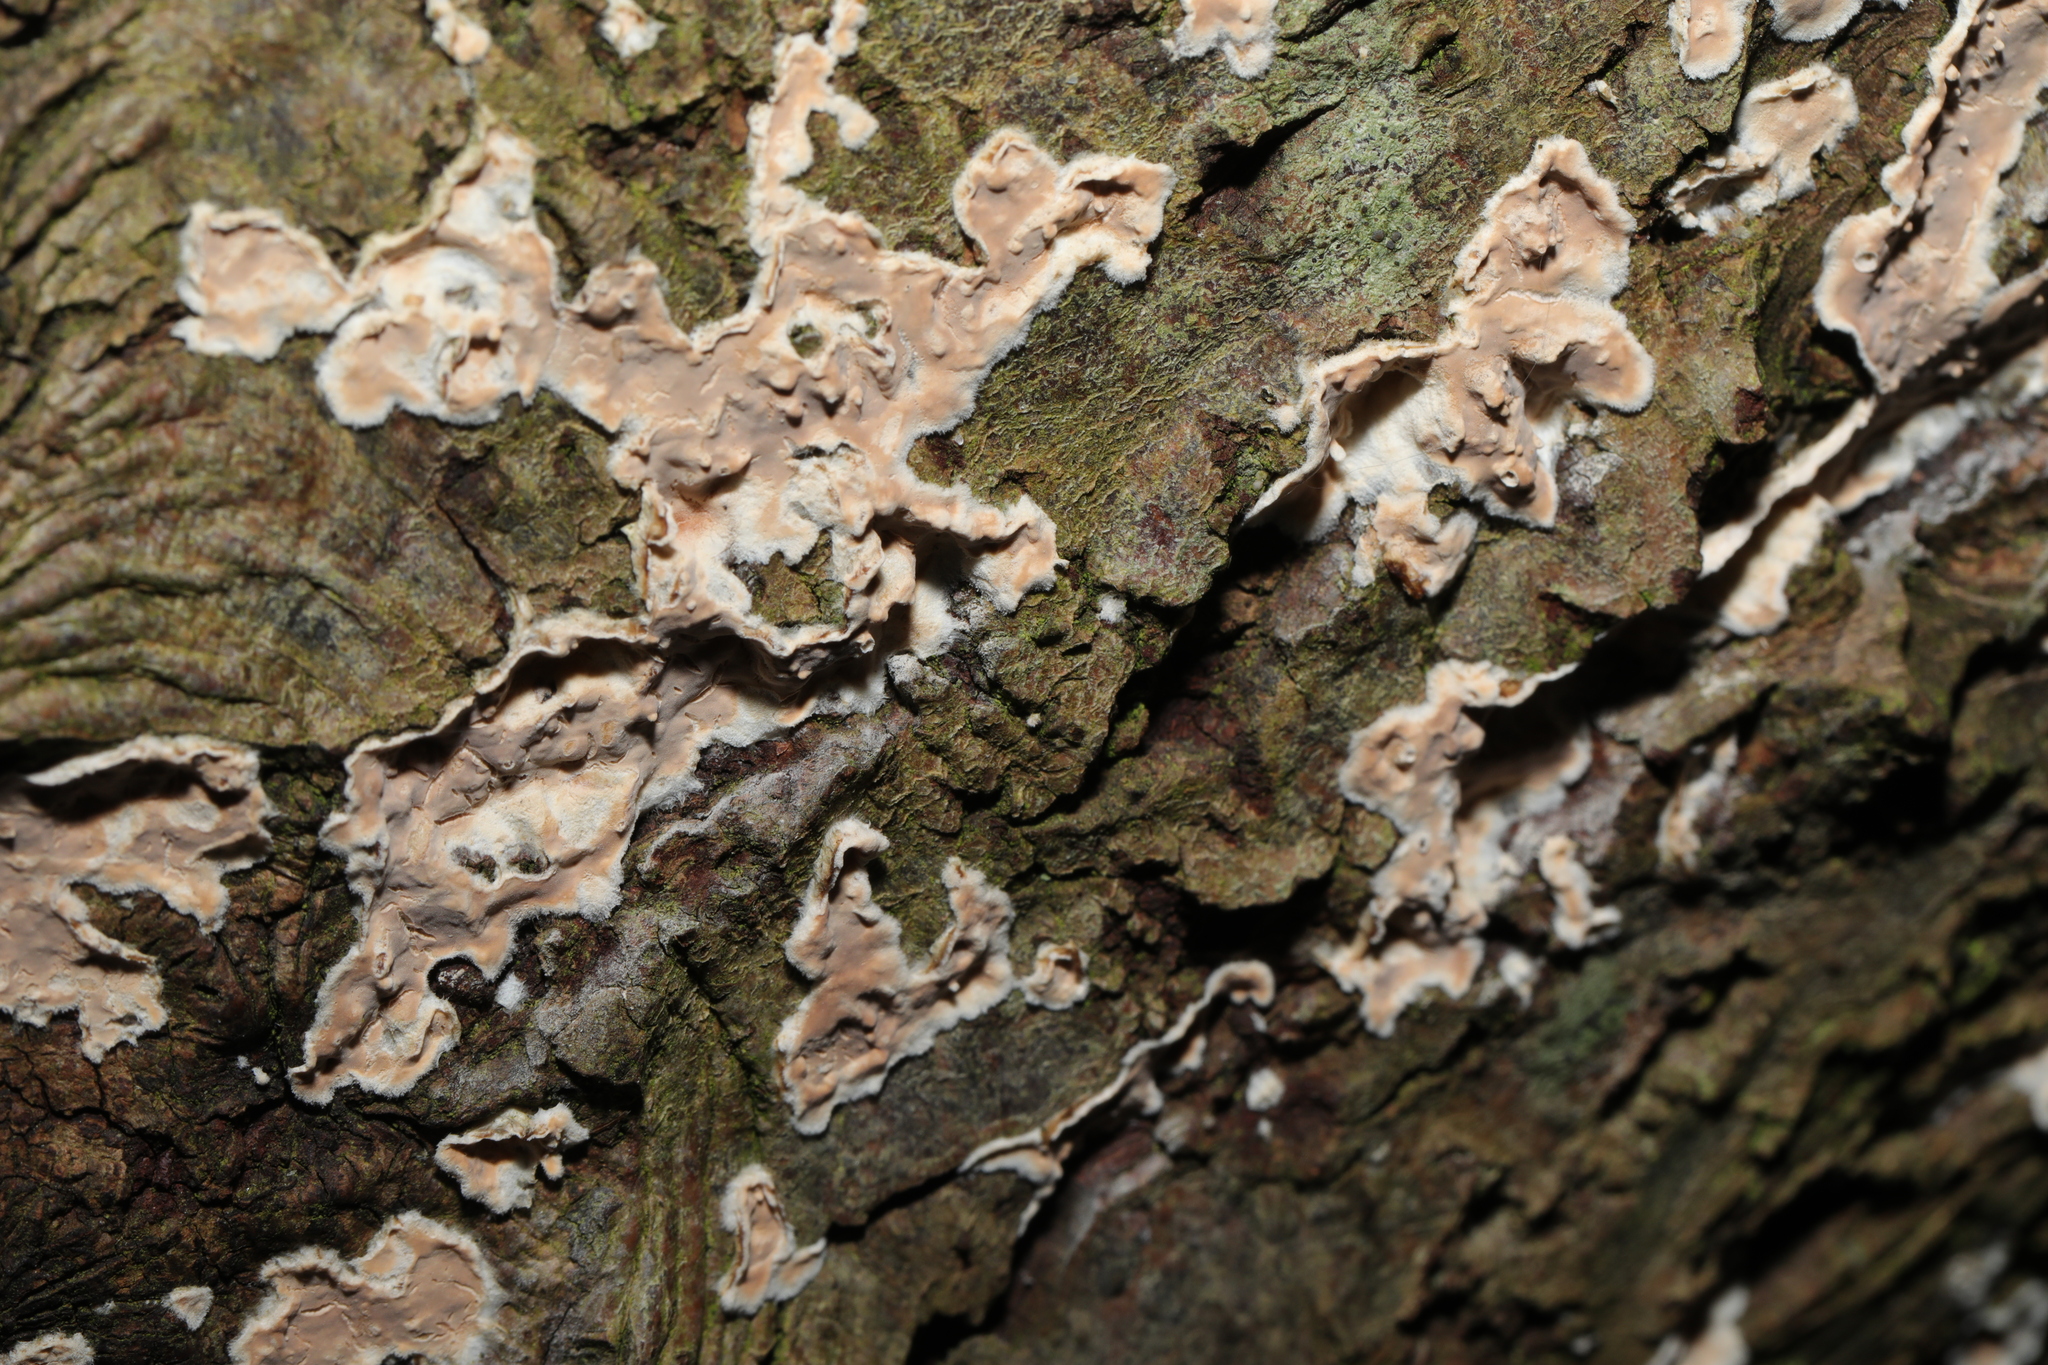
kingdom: Fungi
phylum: Basidiomycota
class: Agaricomycetes
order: Russulales
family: Stereaceae
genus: Stereum
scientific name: Stereum rugosum
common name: Bleeding broadleaf crust
